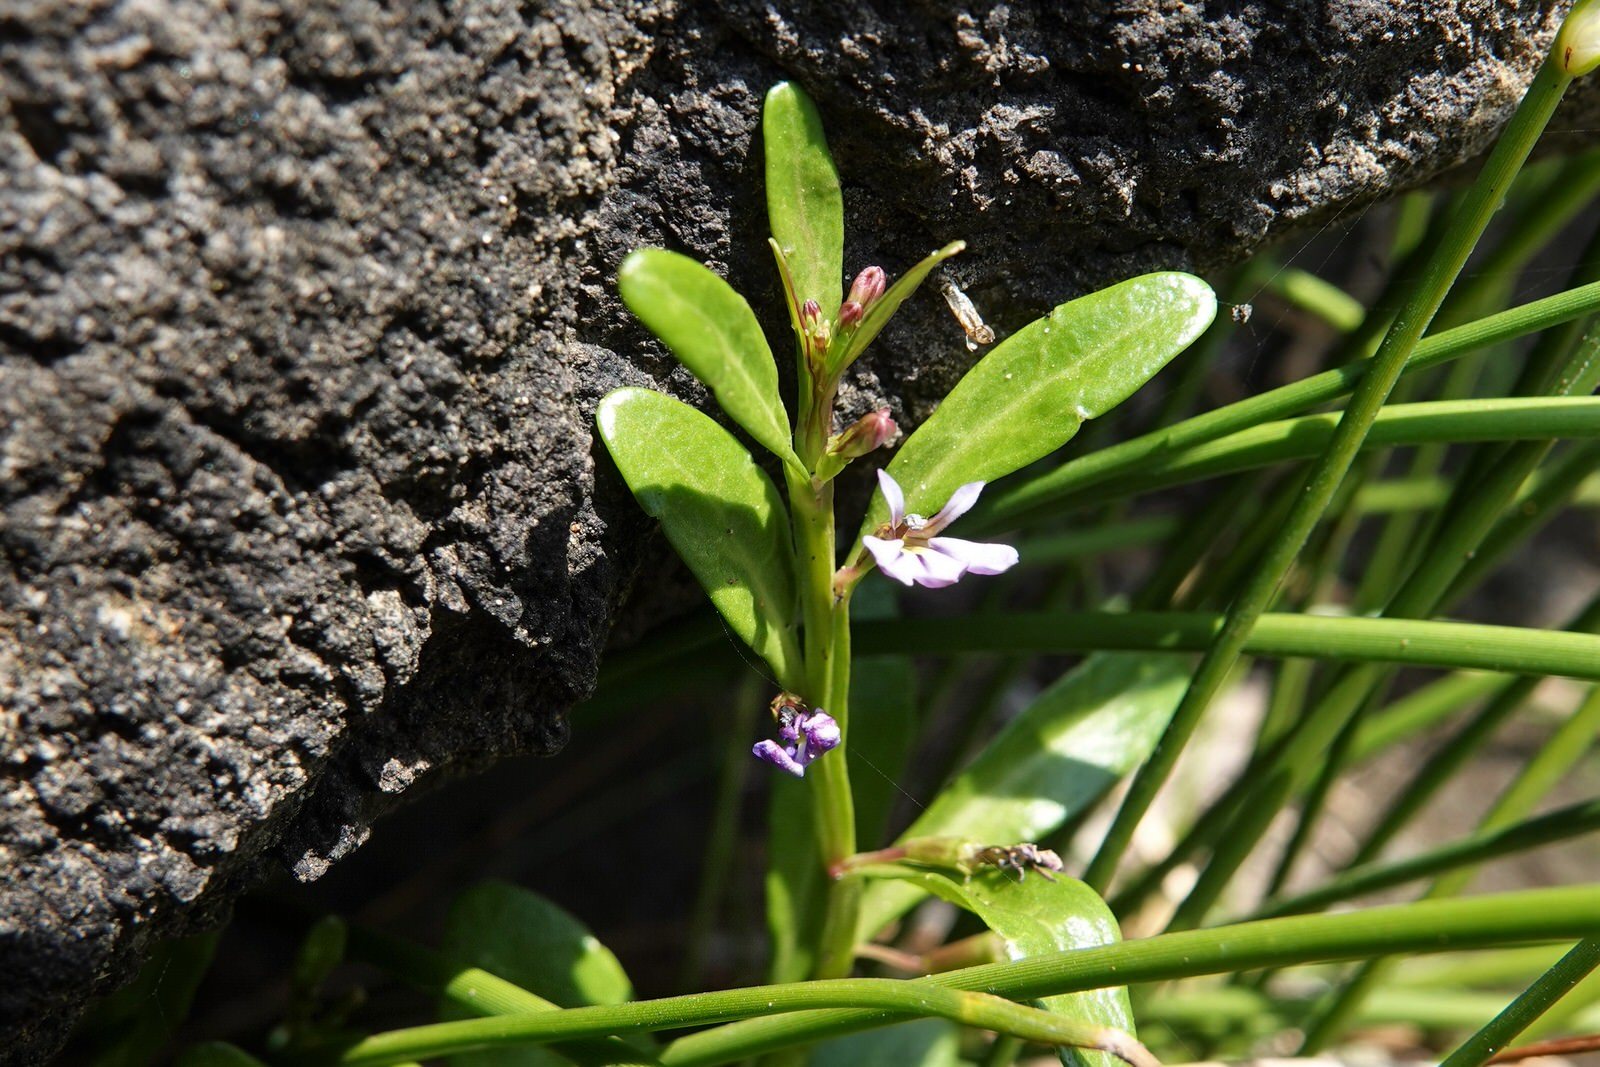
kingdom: Plantae
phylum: Tracheophyta
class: Magnoliopsida
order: Asterales
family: Campanulaceae
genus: Lobelia
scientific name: Lobelia anceps
